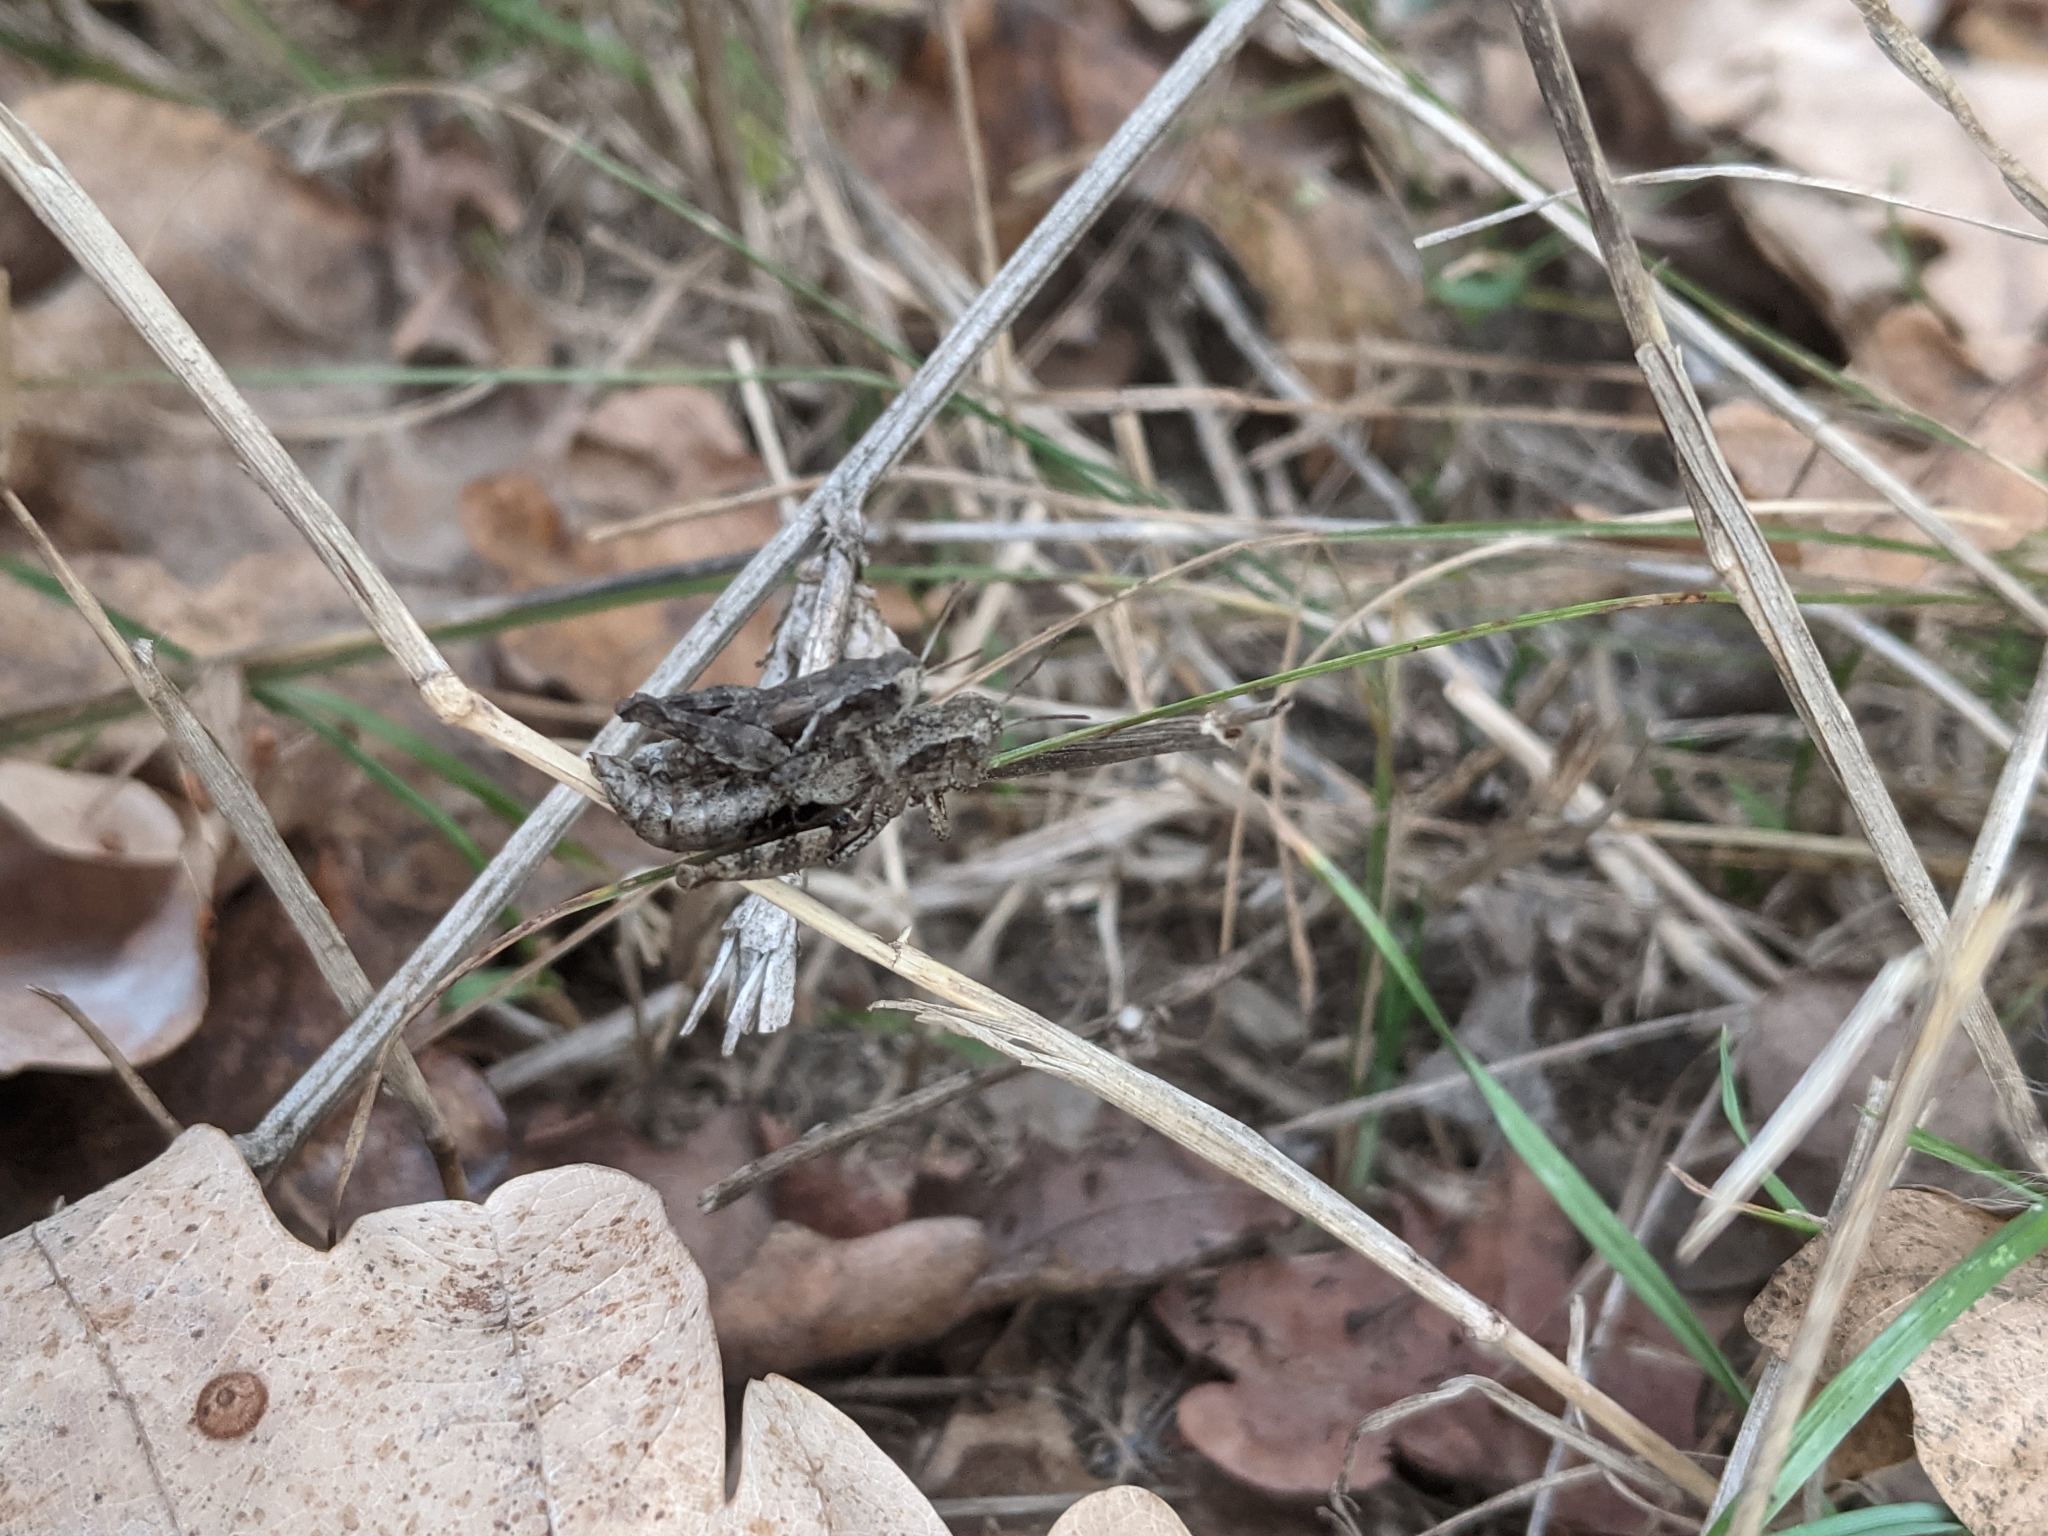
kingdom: Animalia
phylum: Arthropoda
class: Insecta
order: Orthoptera
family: Acrididae
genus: Pezotettix
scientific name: Pezotettix giornae
